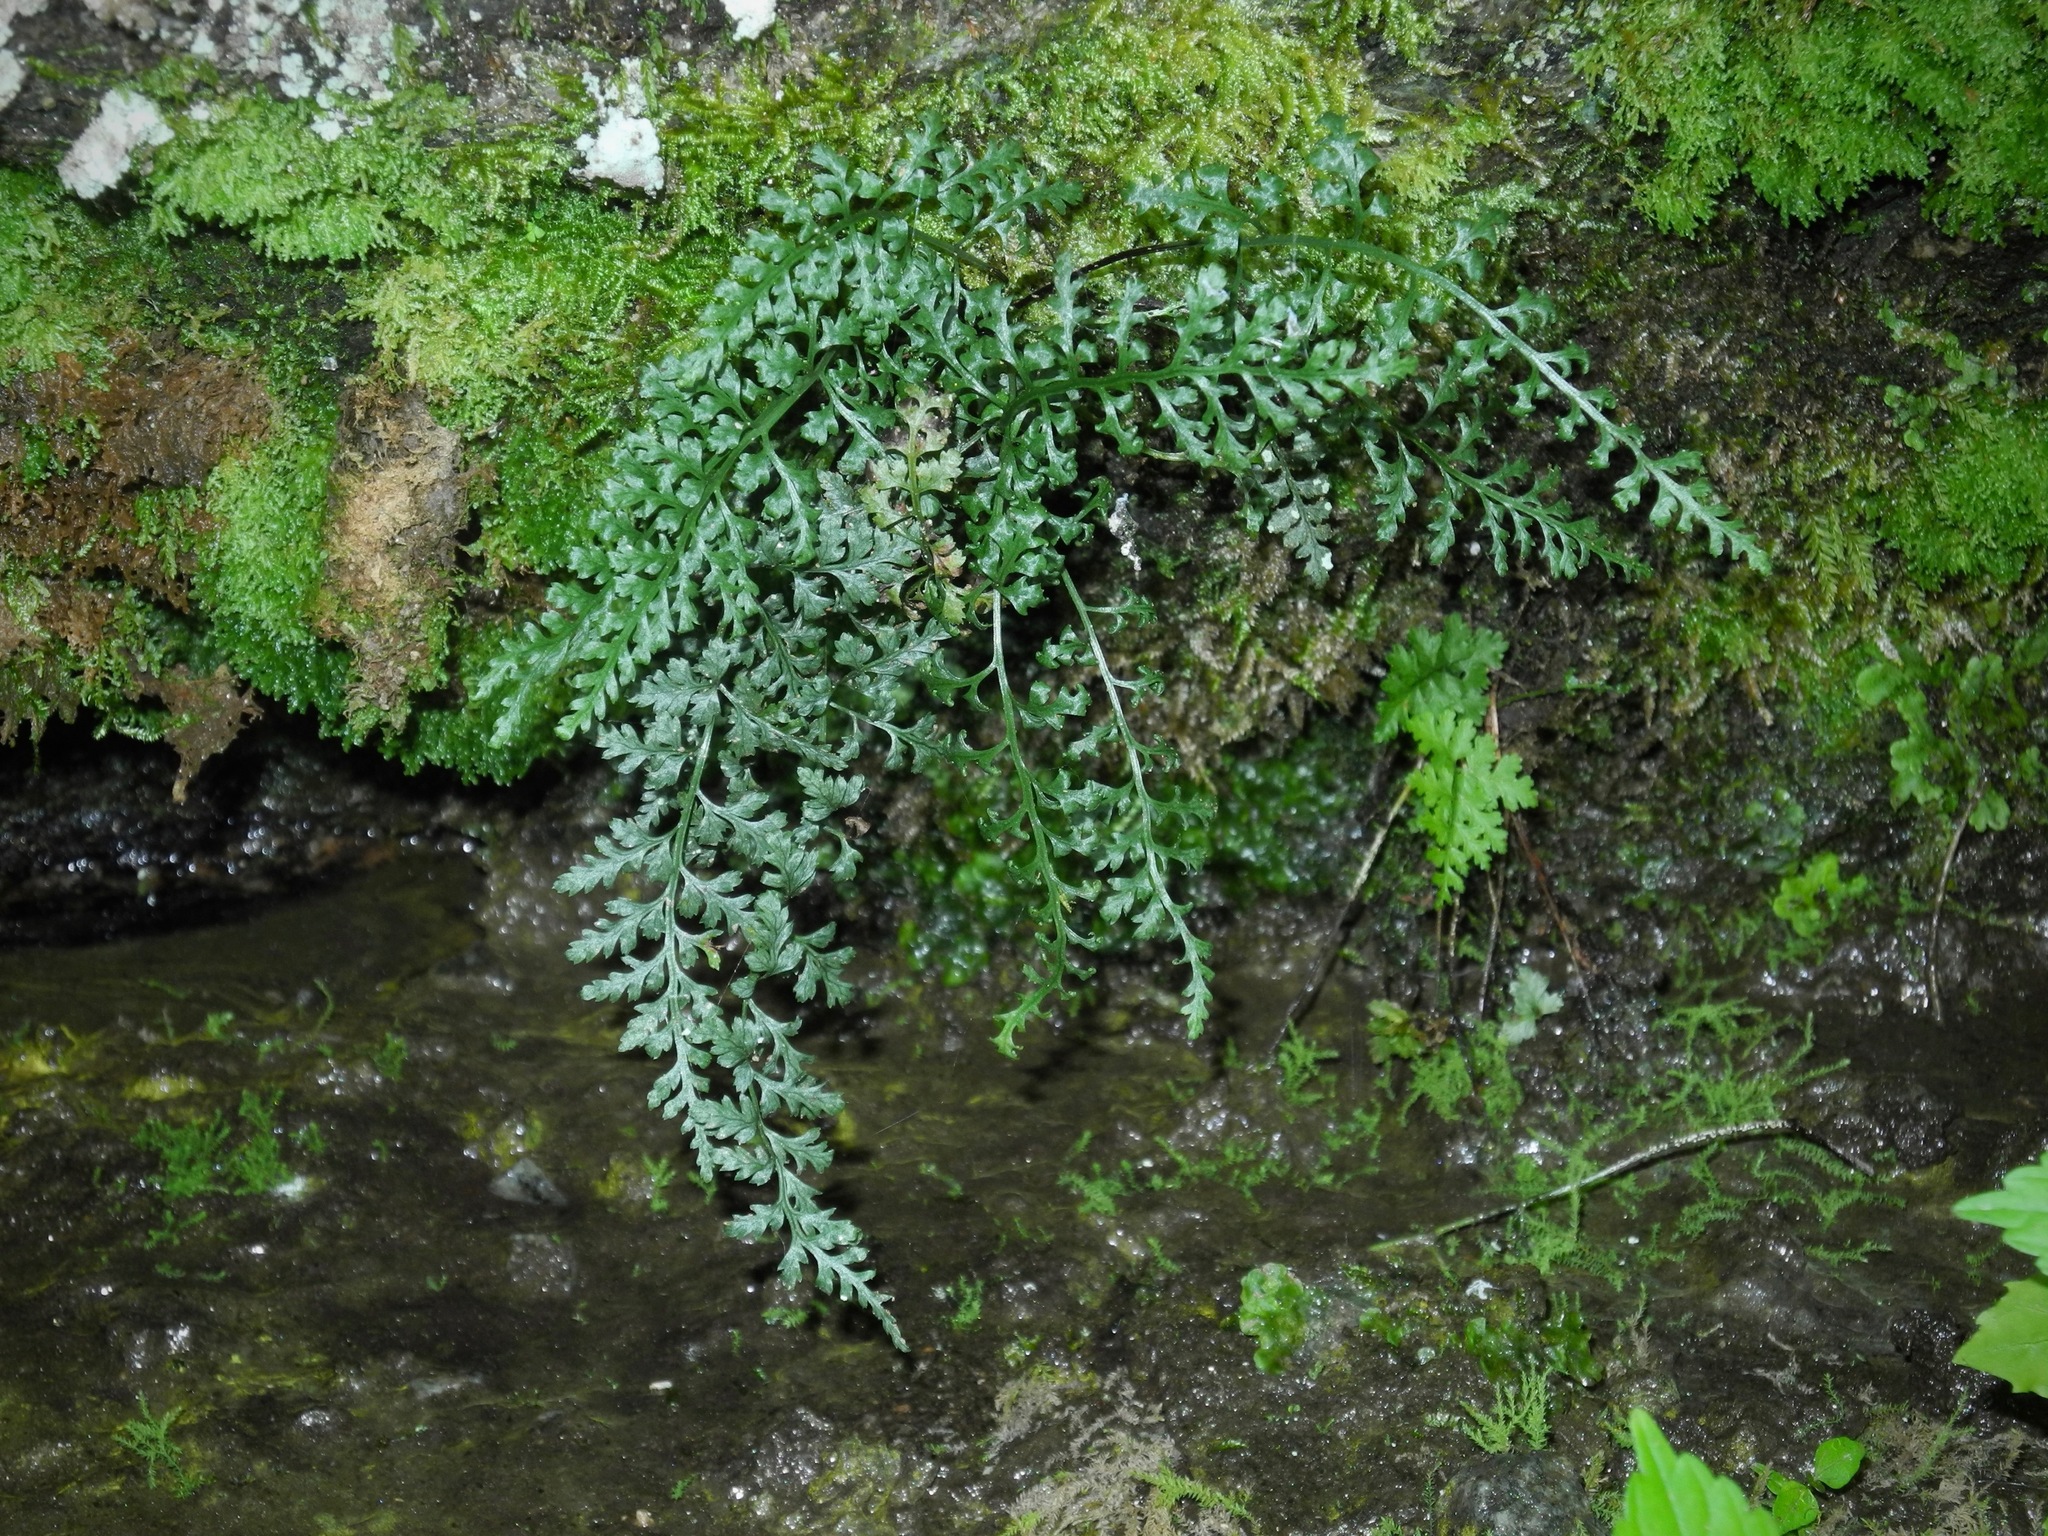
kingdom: Plantae
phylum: Tracheophyta
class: Polypodiopsida
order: Hymenophyllales
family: Hymenophyllaceae
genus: Vandenboschia
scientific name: Vandenboschia boschiana
